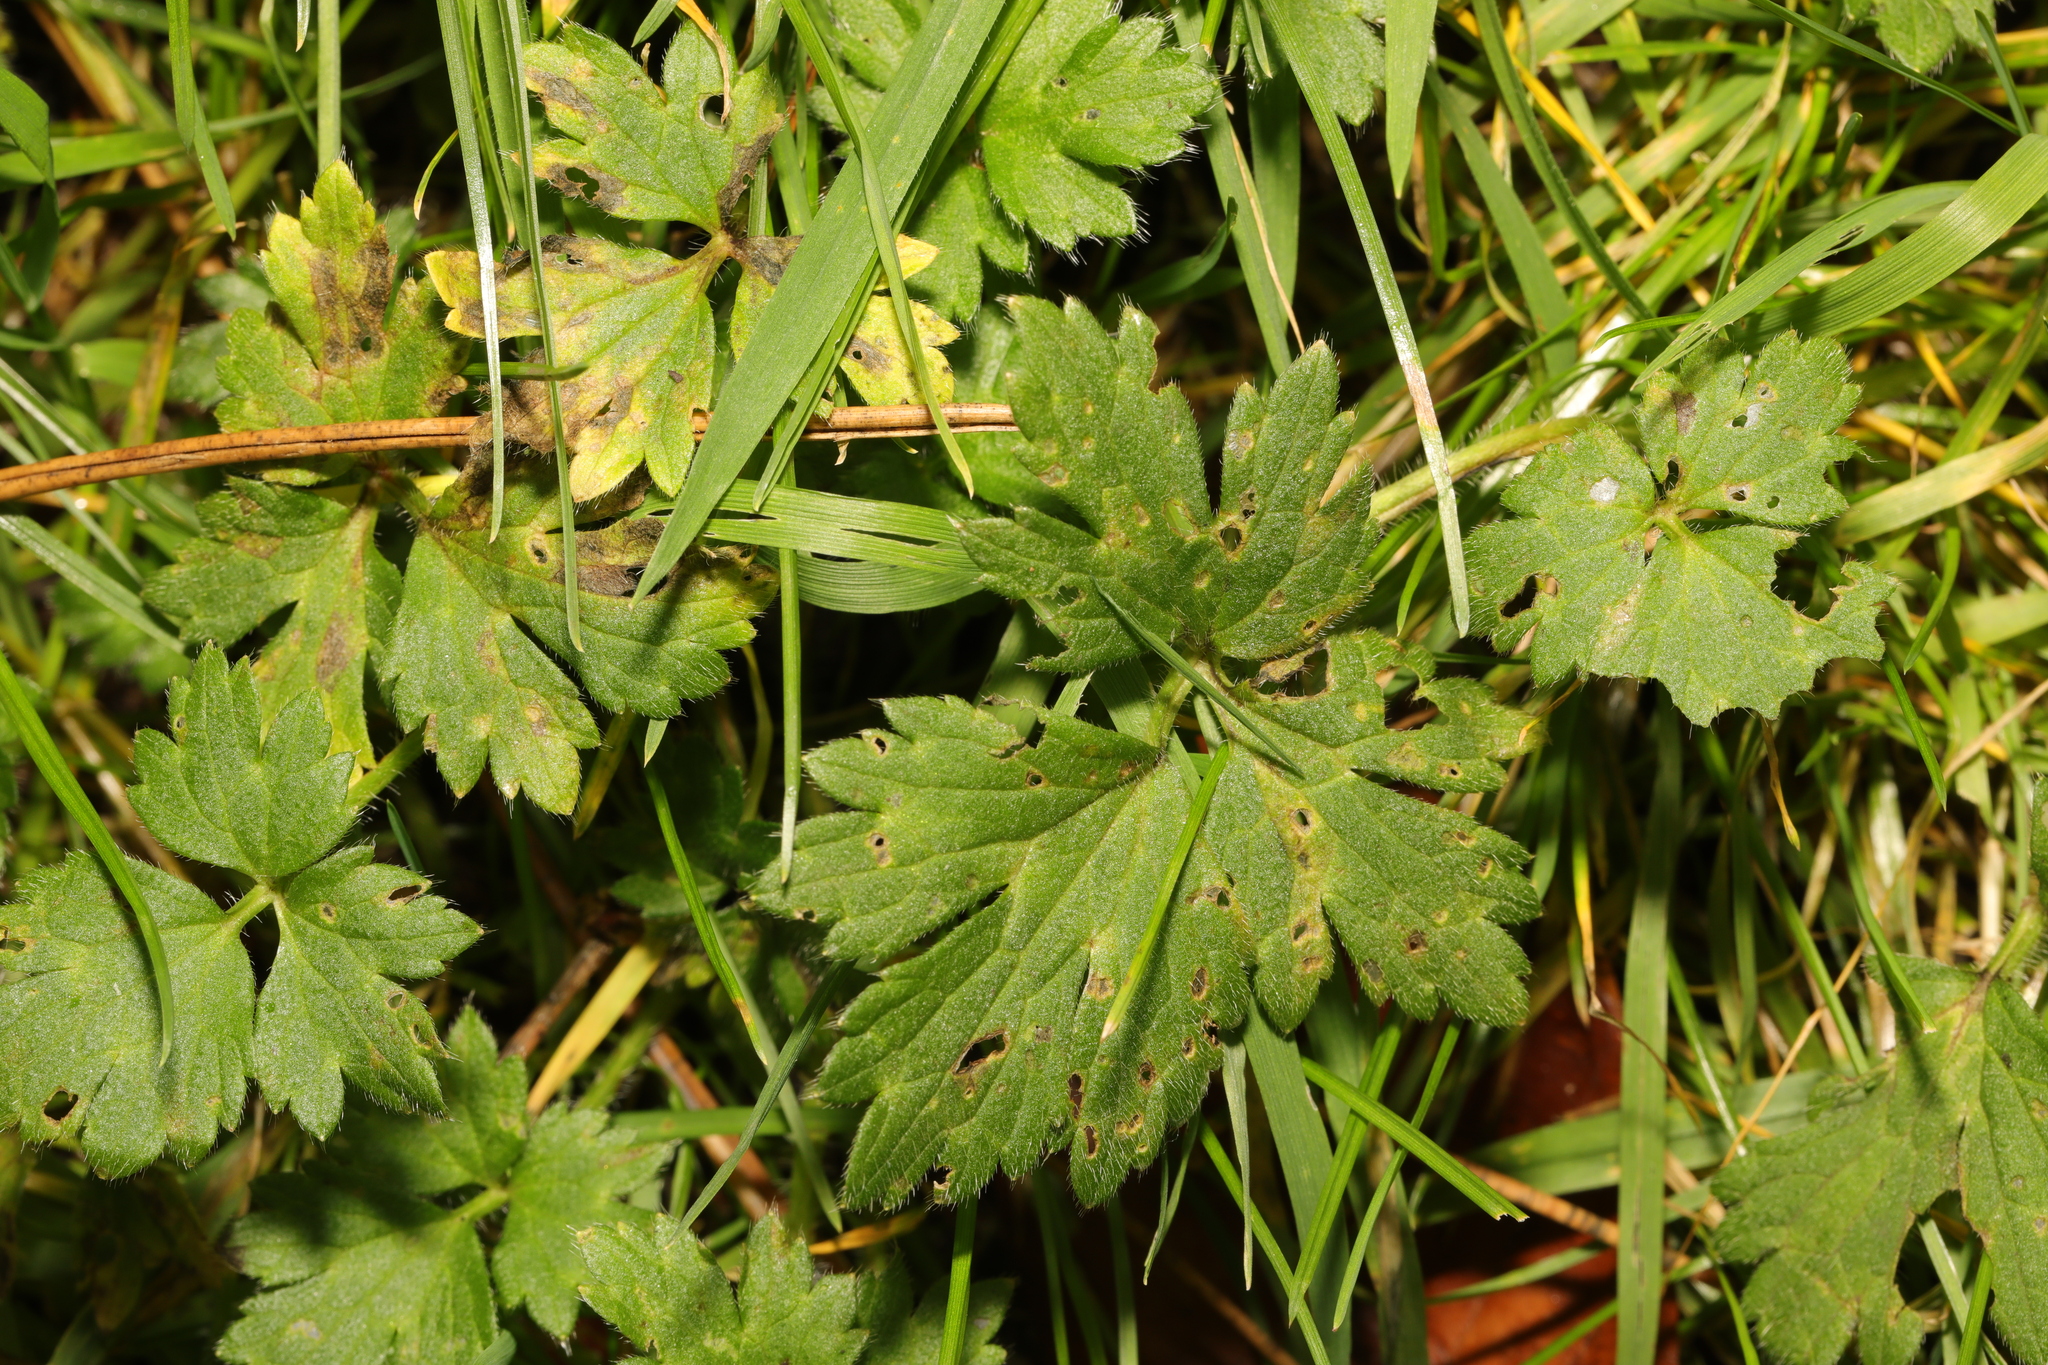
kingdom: Plantae
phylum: Tracheophyta
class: Magnoliopsida
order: Ranunculales
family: Ranunculaceae
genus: Ranunculus
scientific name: Ranunculus repens
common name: Creeping buttercup
